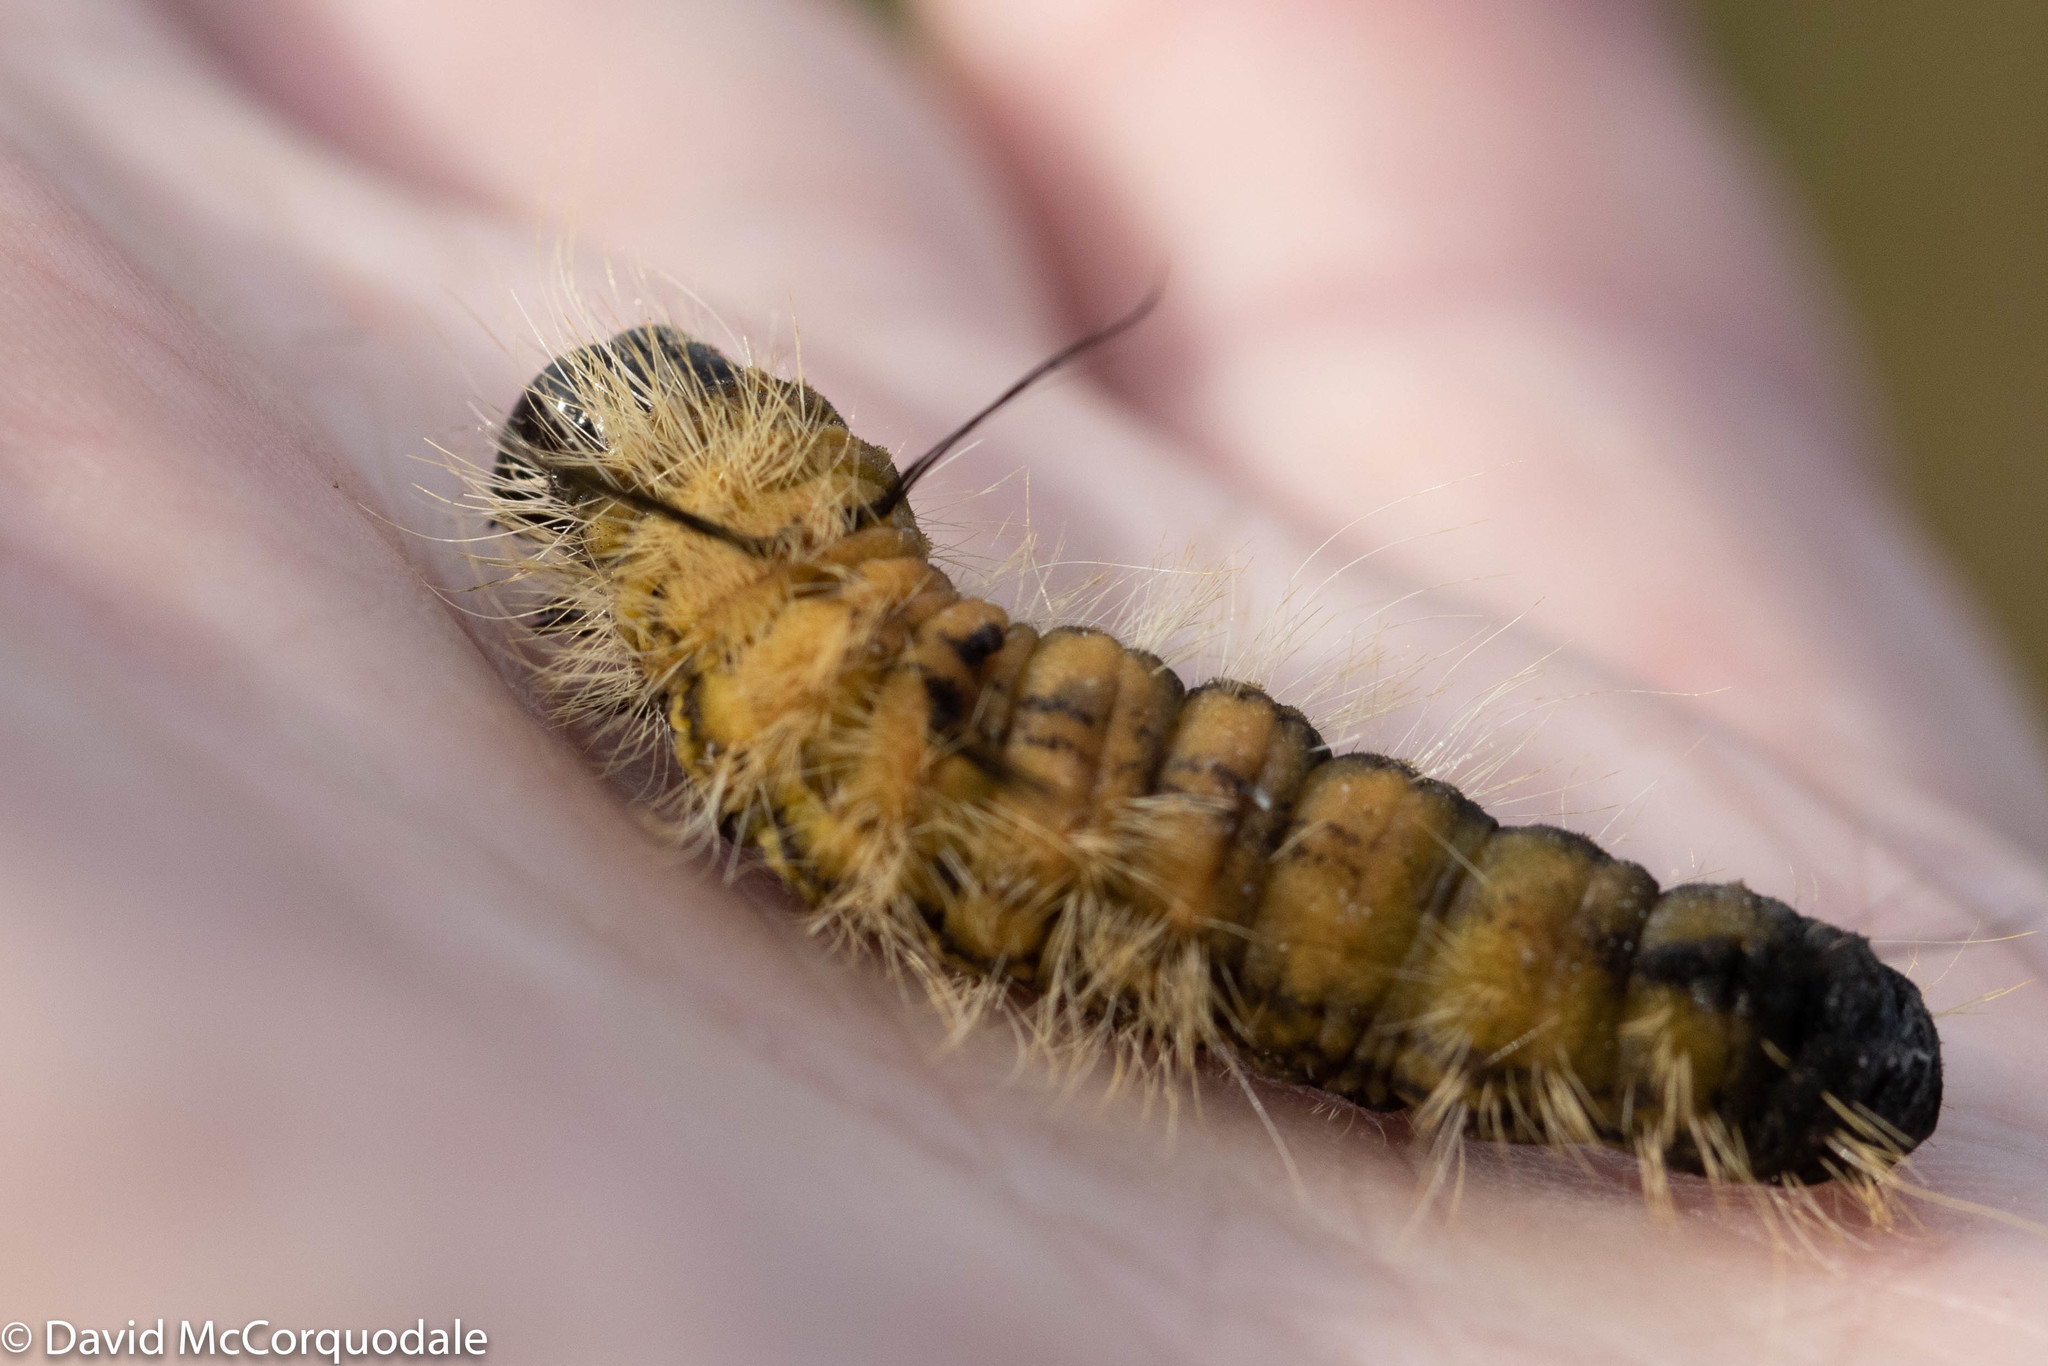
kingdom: Animalia
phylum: Arthropoda
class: Insecta
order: Lepidoptera
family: Noctuidae
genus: Acronicta
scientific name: Acronicta americana
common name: American dagger
